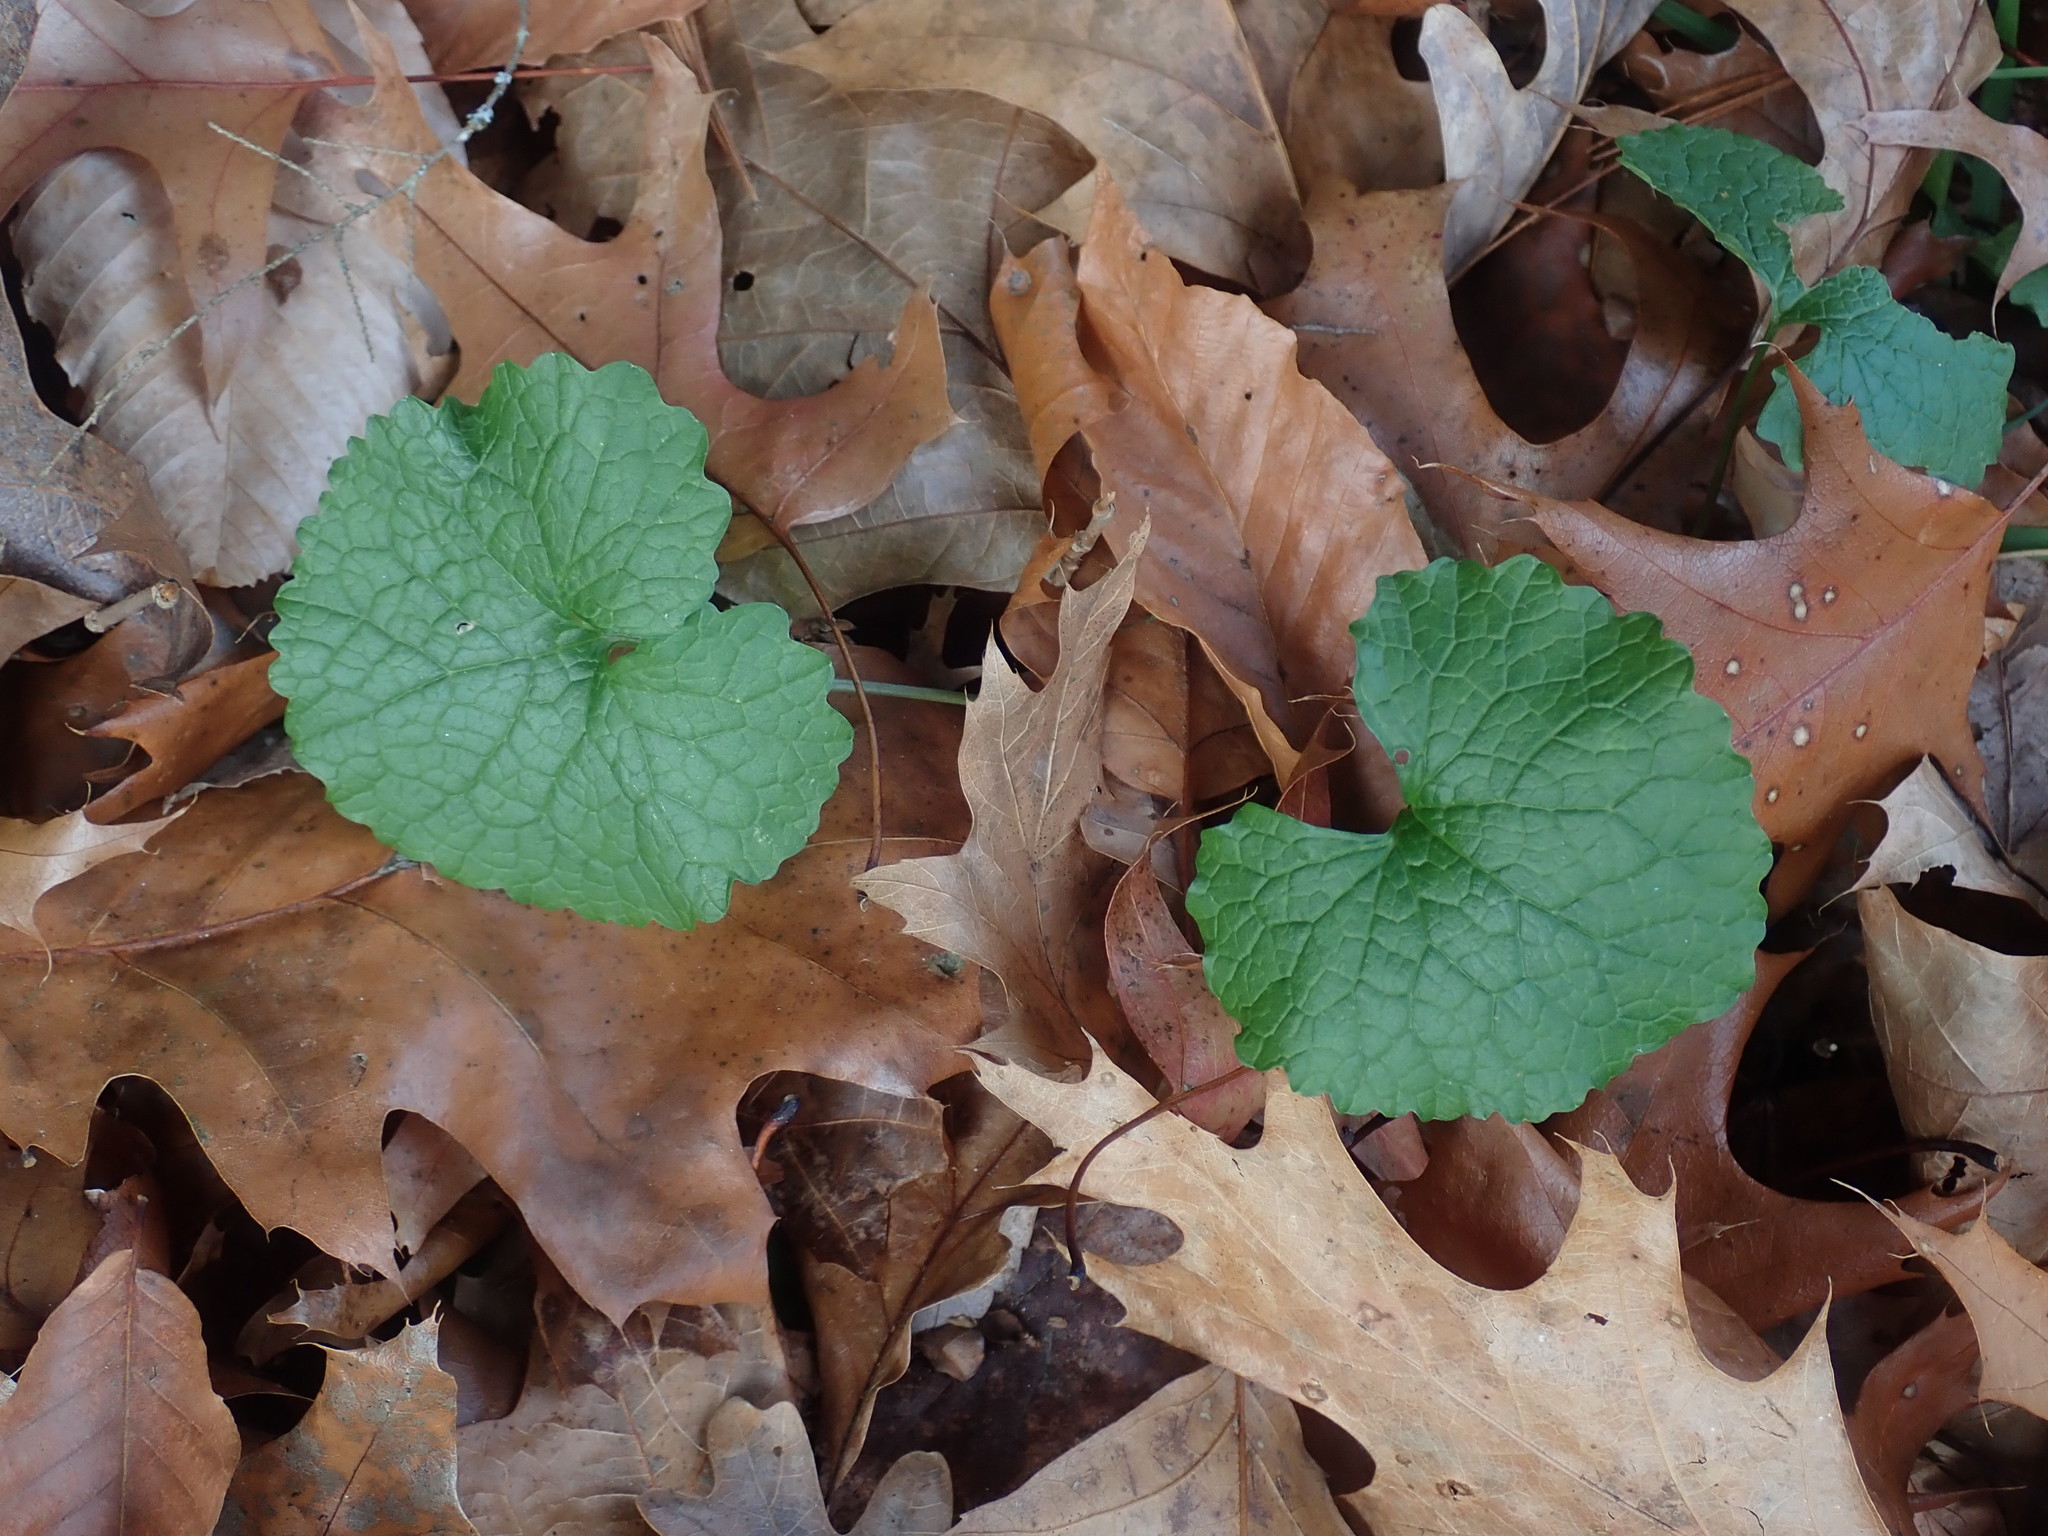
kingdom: Plantae
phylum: Tracheophyta
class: Magnoliopsida
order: Brassicales
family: Brassicaceae
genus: Alliaria
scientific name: Alliaria petiolata
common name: Garlic mustard
